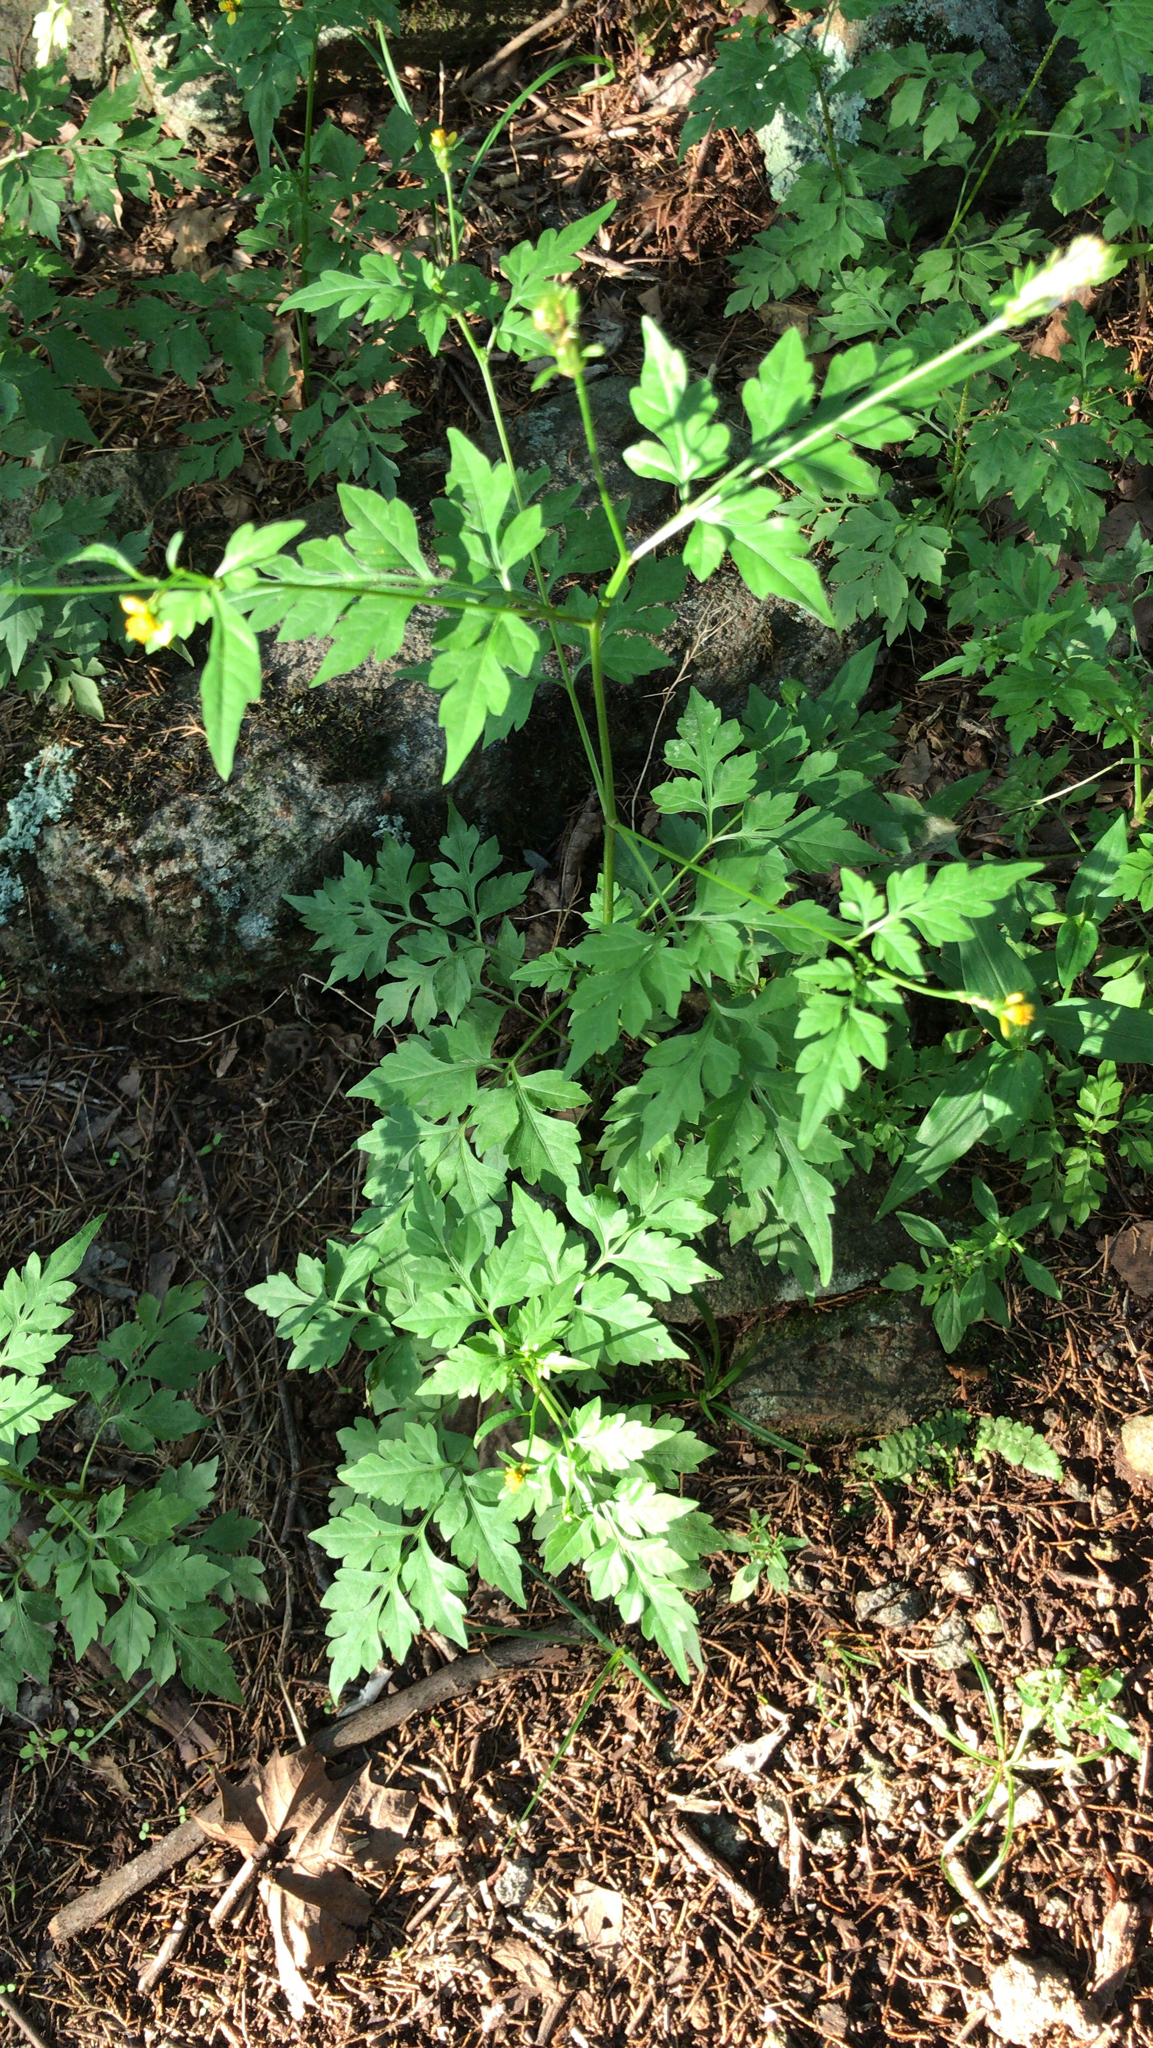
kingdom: Plantae
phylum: Tracheophyta
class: Magnoliopsida
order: Asterales
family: Asteraceae
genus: Bidens
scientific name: Bidens bipinnata
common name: Spanish-needles
